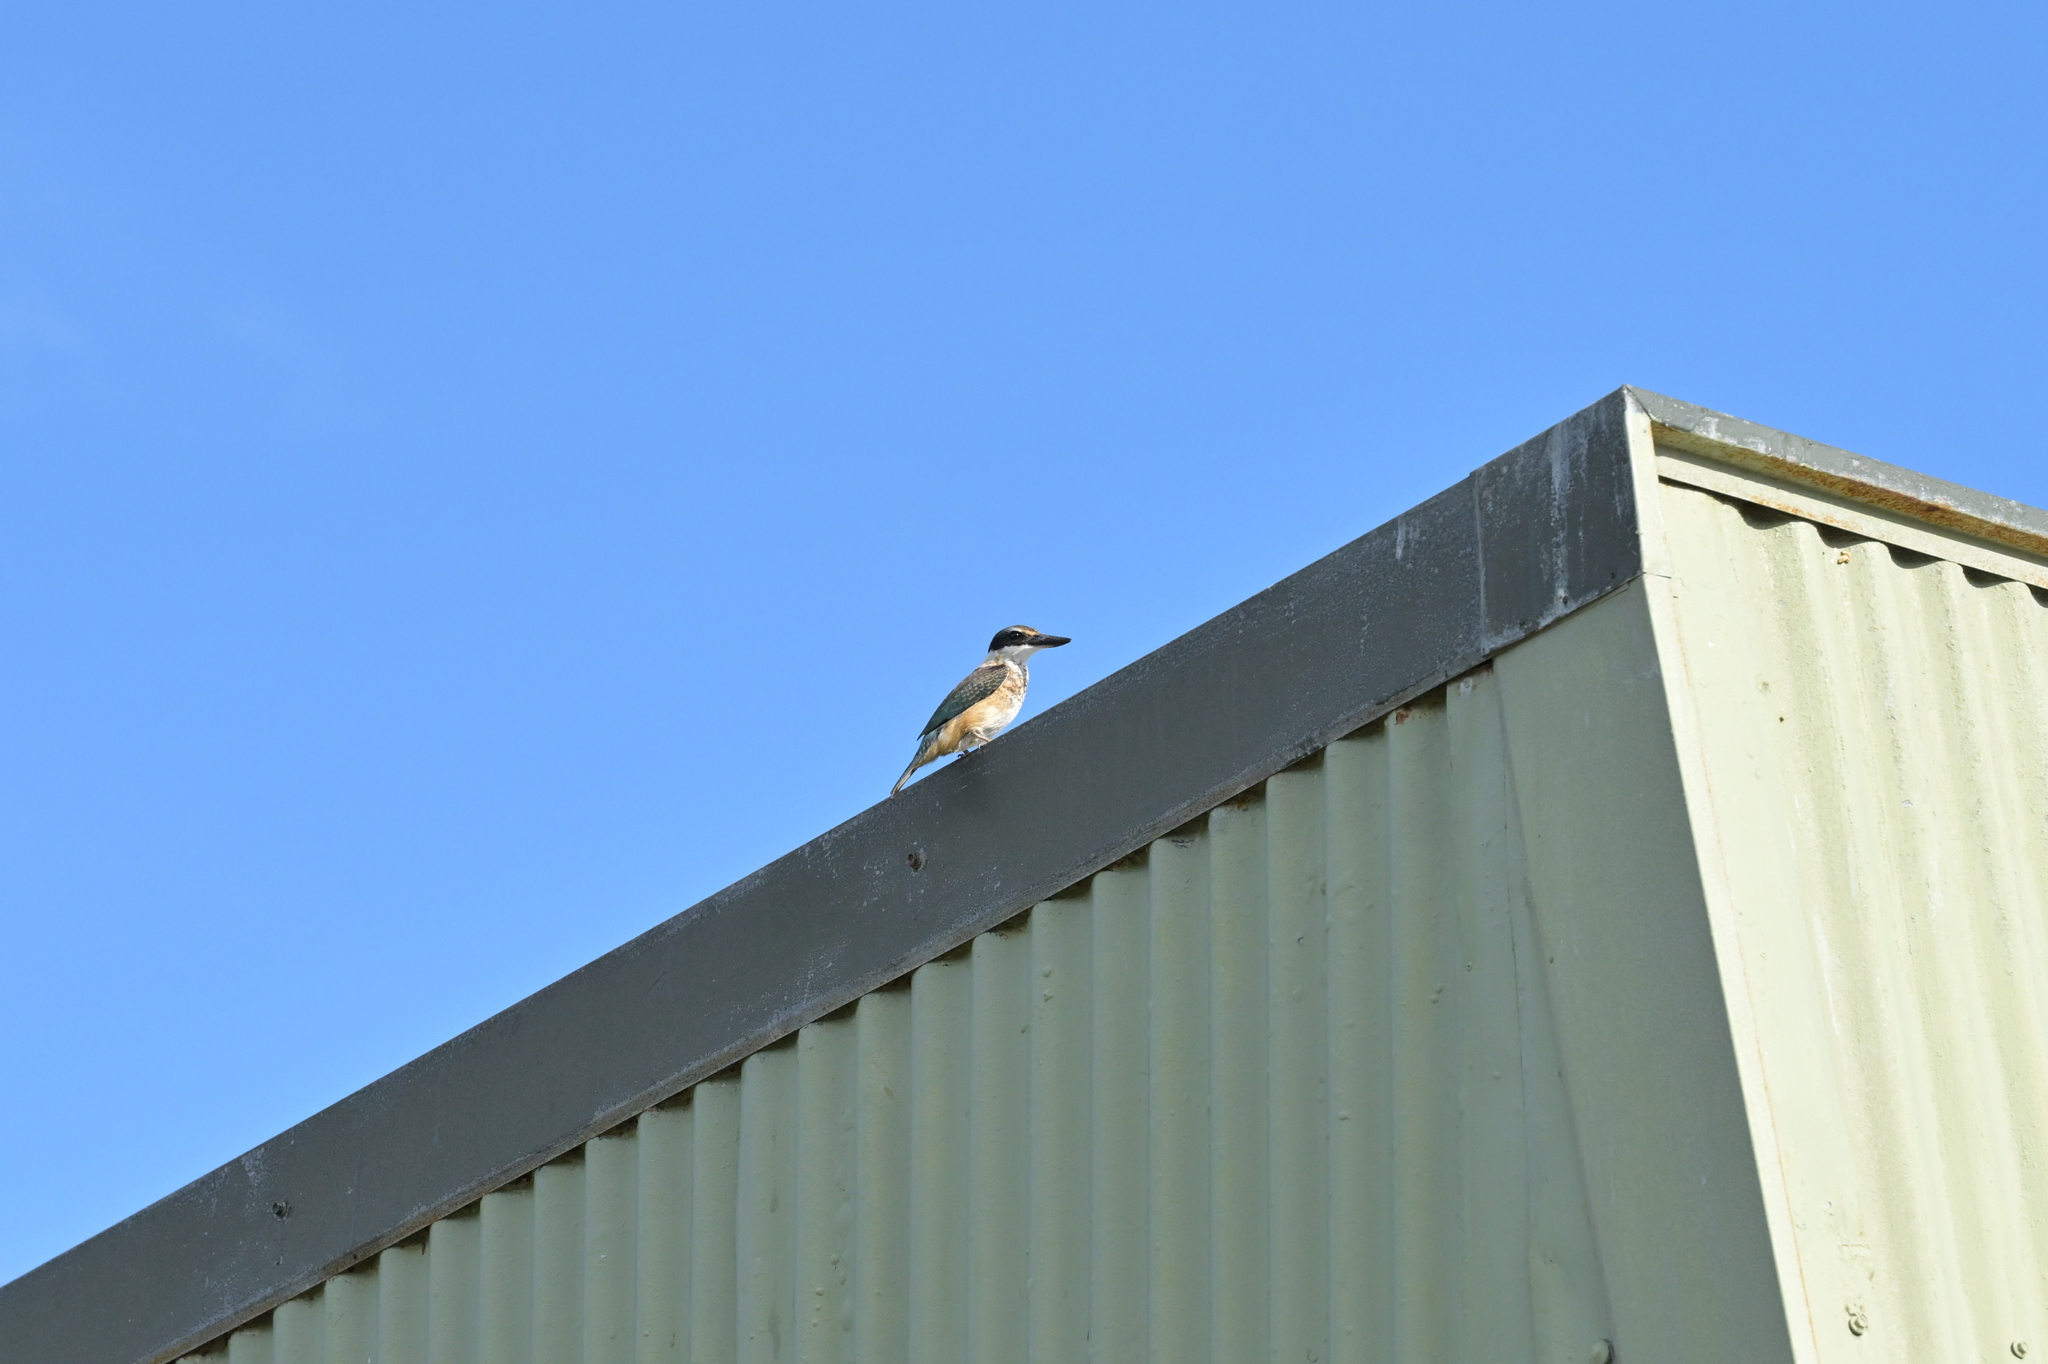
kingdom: Animalia
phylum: Chordata
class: Aves
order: Coraciiformes
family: Alcedinidae
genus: Todiramphus
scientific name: Todiramphus sanctus
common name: Sacred kingfisher
